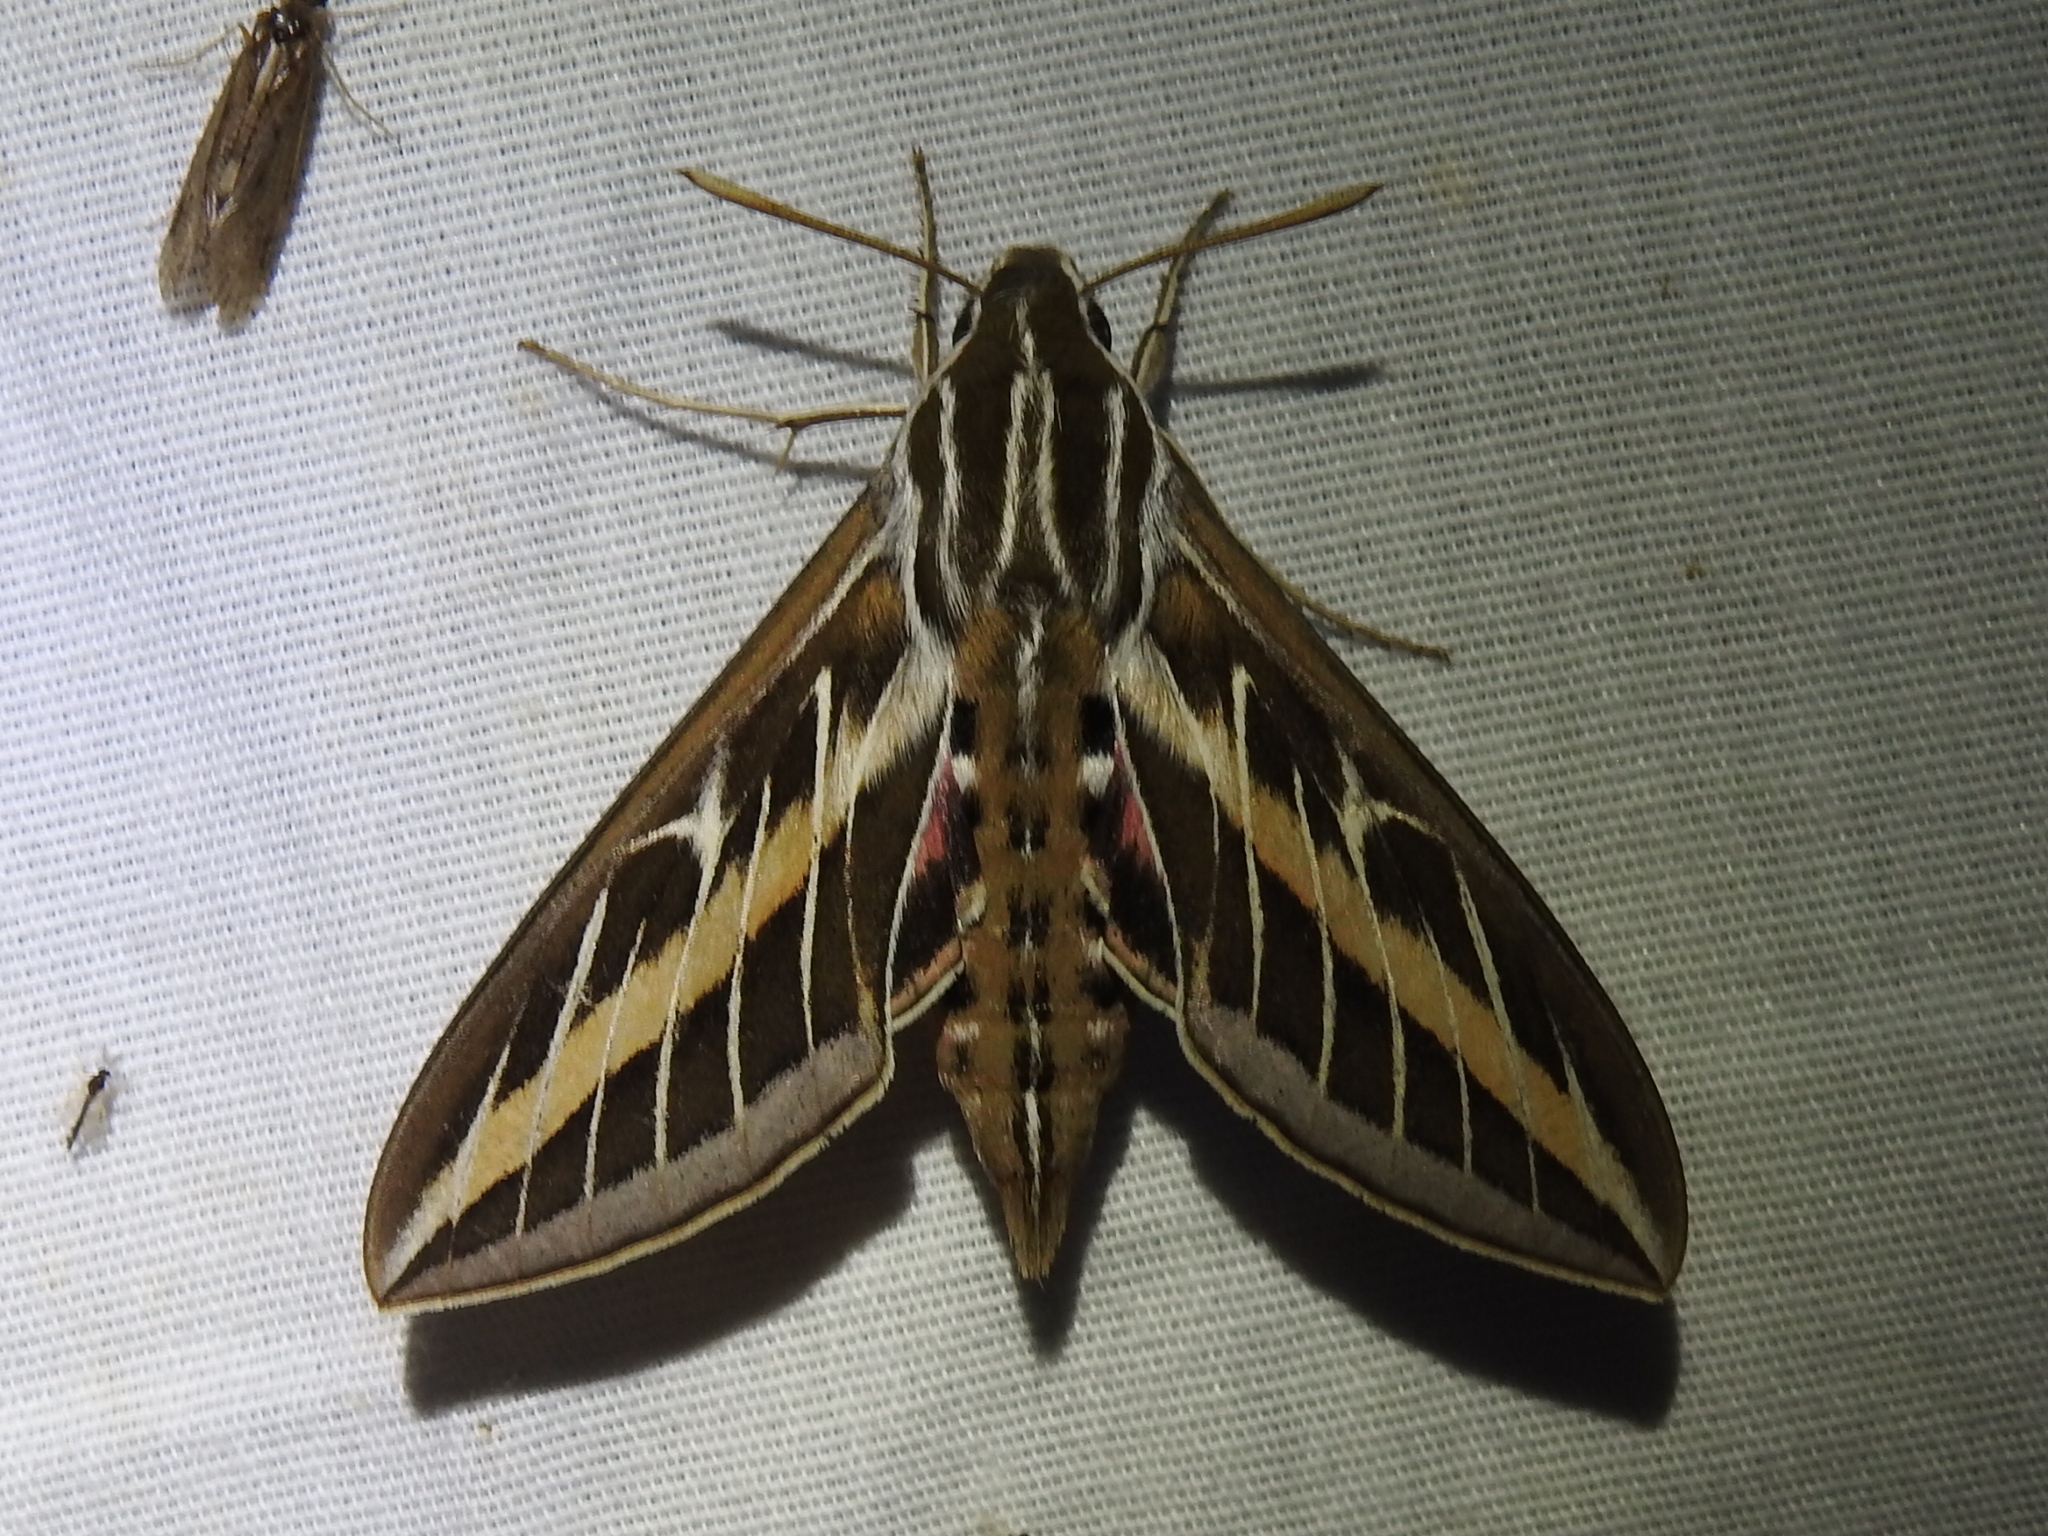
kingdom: Animalia
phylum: Arthropoda
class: Insecta
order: Lepidoptera
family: Sphingidae
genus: Hyles
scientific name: Hyles lineata
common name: White-lined sphinx
